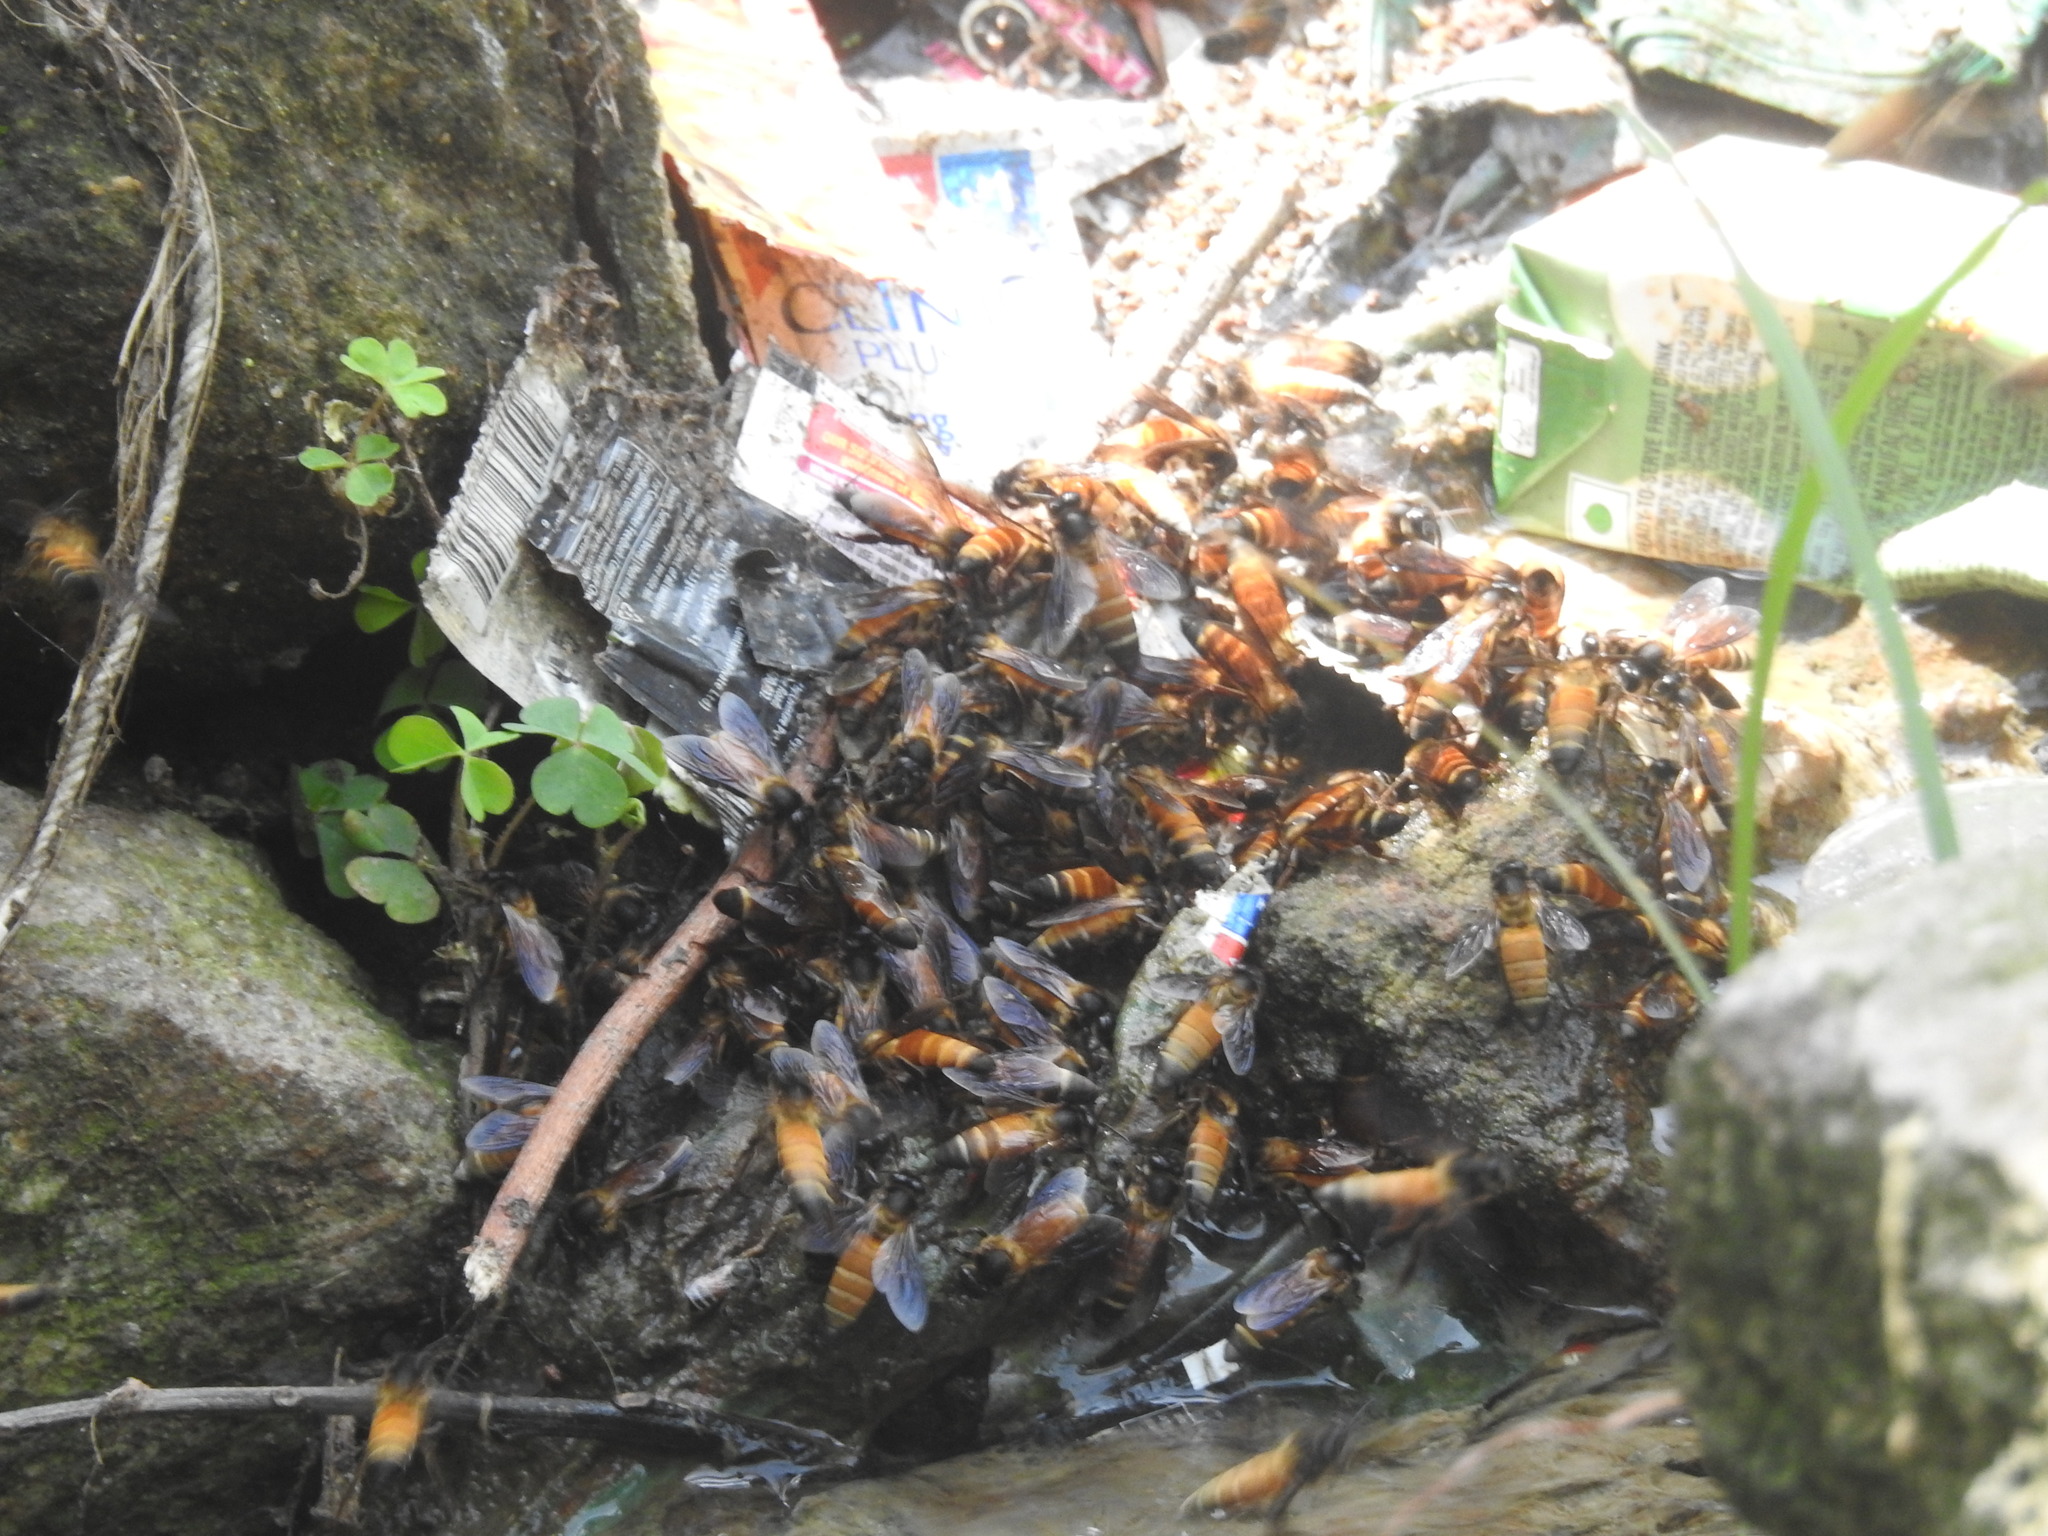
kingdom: Animalia
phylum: Arthropoda
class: Insecta
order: Hymenoptera
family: Apidae
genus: Apis
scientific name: Apis dorsata
